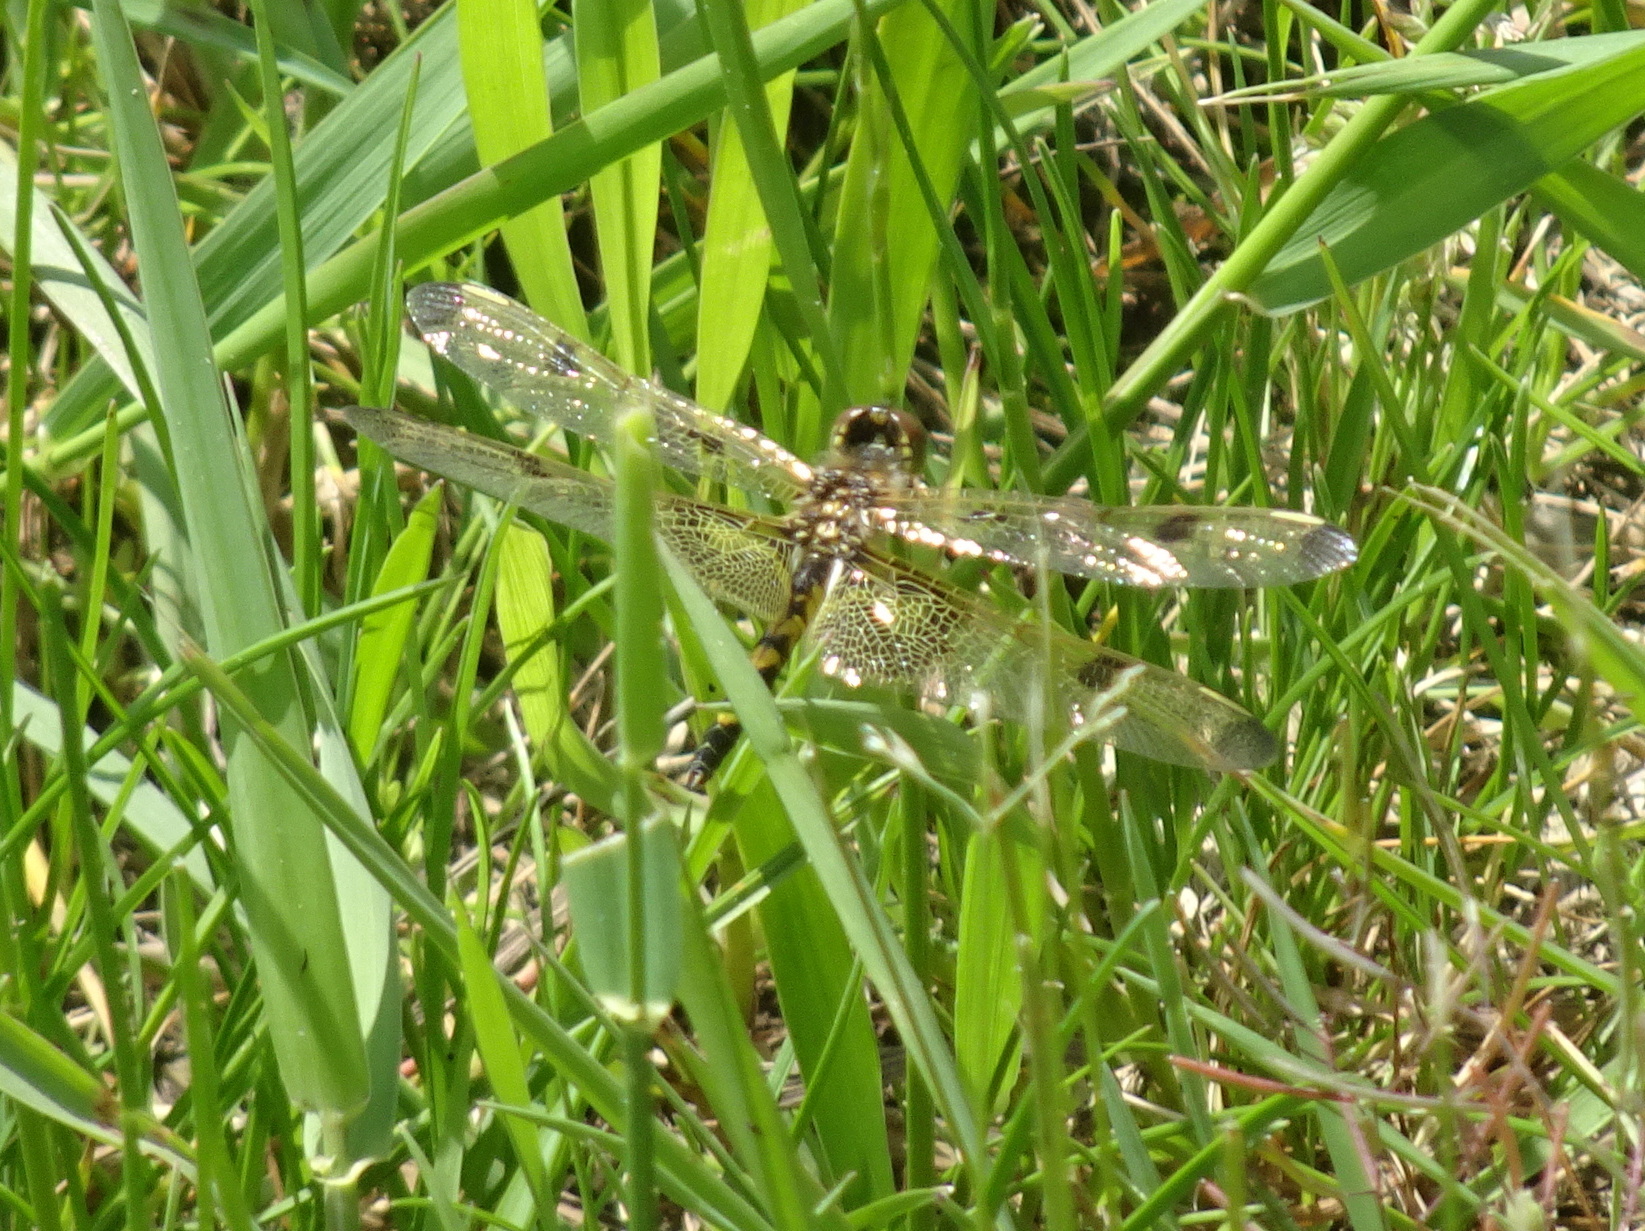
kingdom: Animalia
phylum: Arthropoda
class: Insecta
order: Odonata
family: Libellulidae
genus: Celithemis
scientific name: Celithemis elisa
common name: Calico pennant
